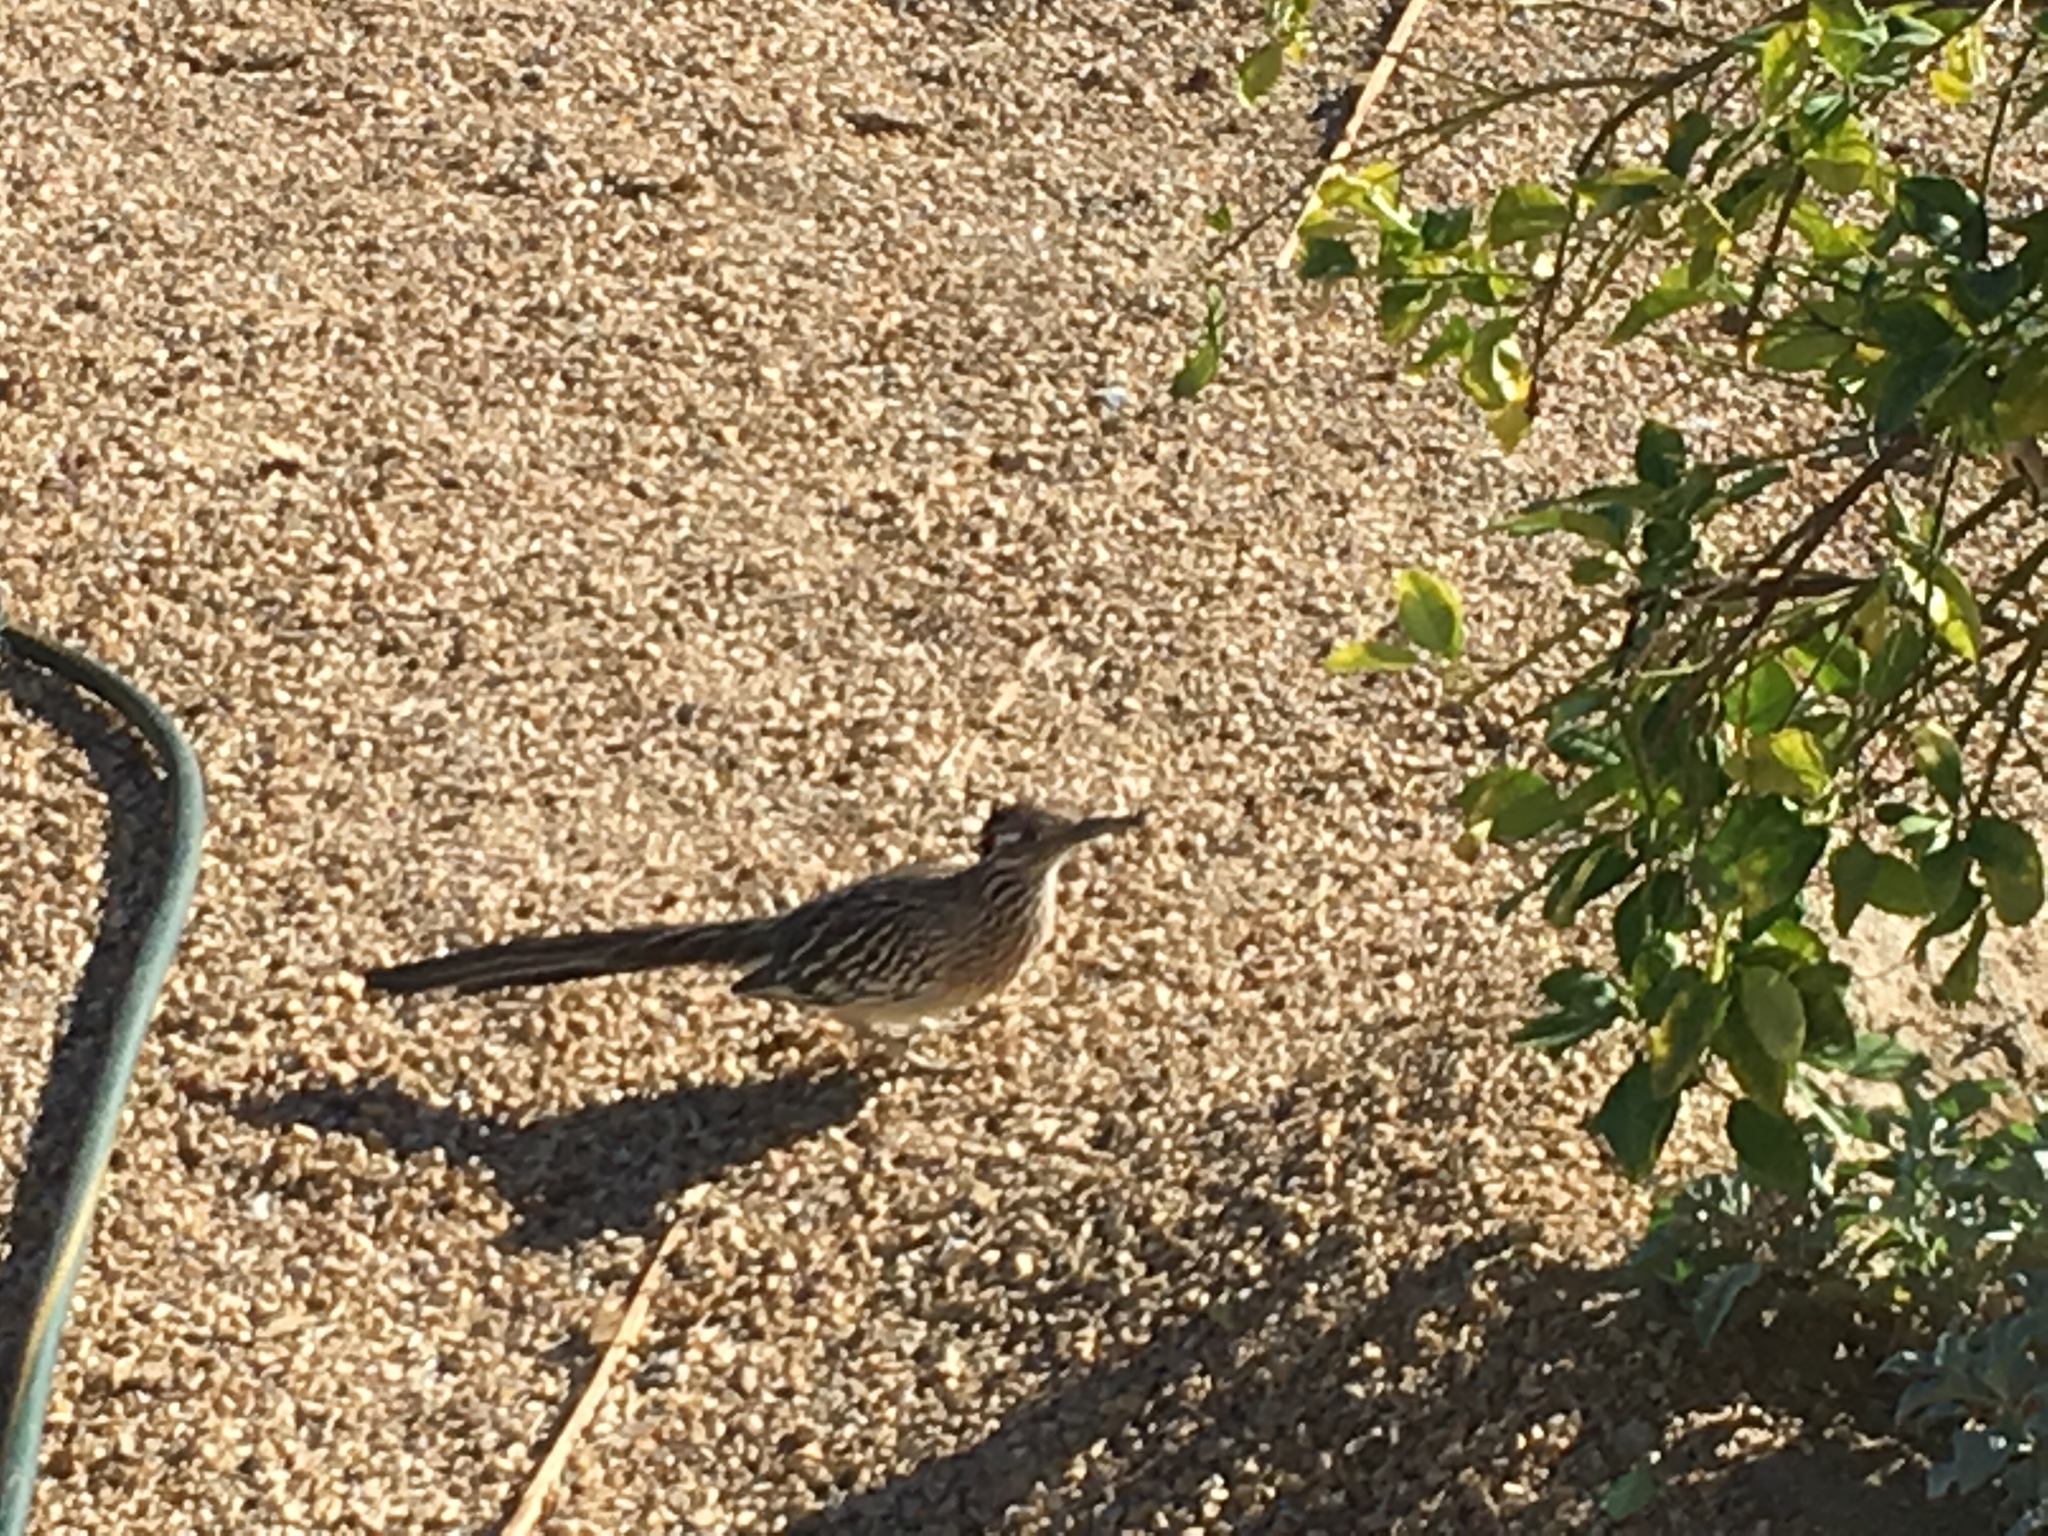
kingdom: Animalia
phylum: Chordata
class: Aves
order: Cuculiformes
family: Cuculidae
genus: Geococcyx
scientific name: Geococcyx californianus
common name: Greater roadrunner
